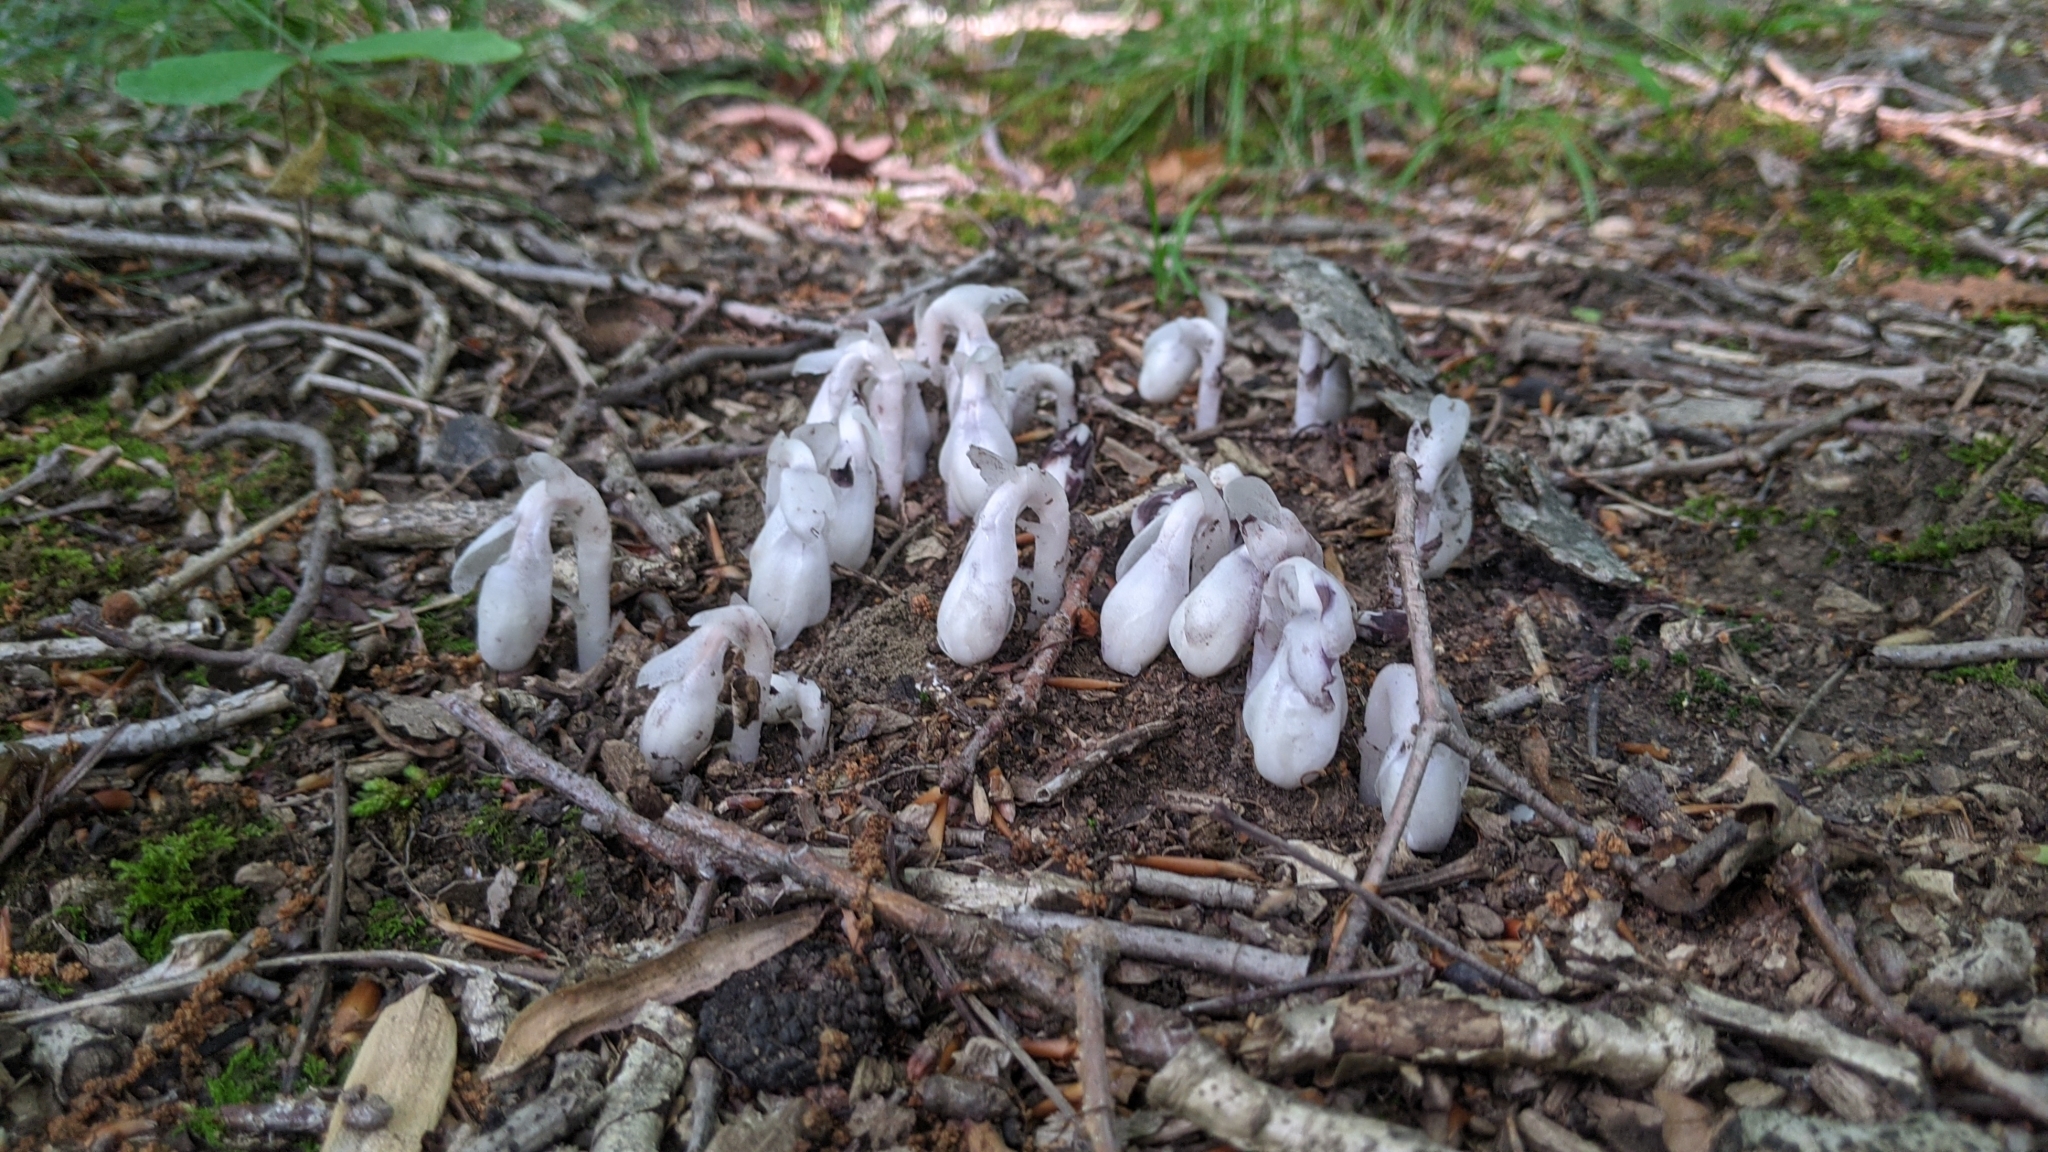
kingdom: Plantae
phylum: Tracheophyta
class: Magnoliopsida
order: Ericales
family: Ericaceae
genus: Monotropa
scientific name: Monotropa uniflora
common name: Convulsion root
